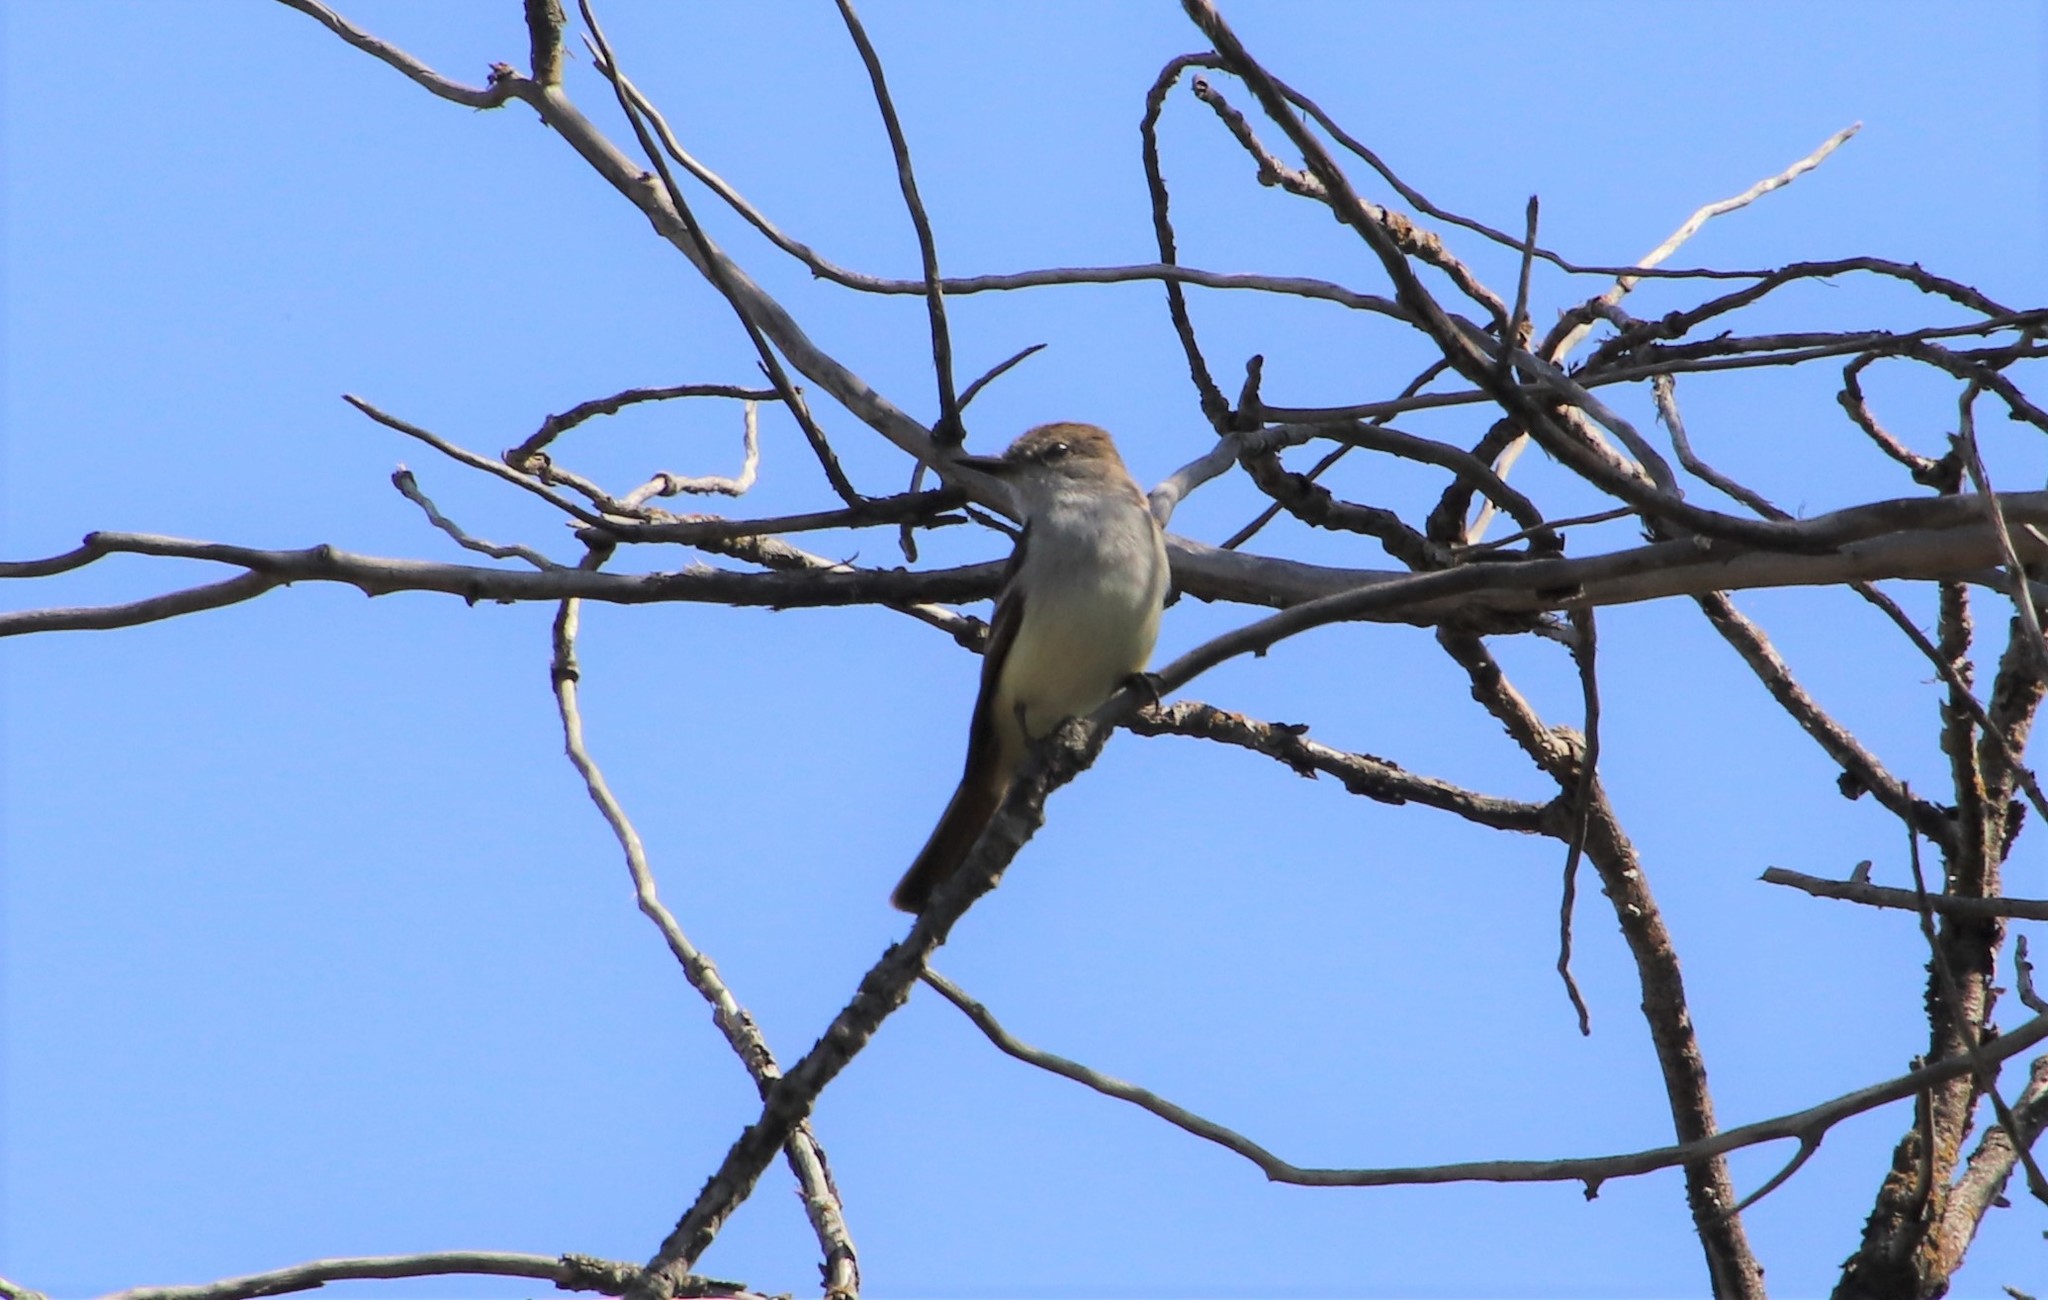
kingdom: Animalia
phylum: Chordata
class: Aves
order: Passeriformes
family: Tyrannidae
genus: Myiarchus
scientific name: Myiarchus cinerascens
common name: Ash-throated flycatcher
